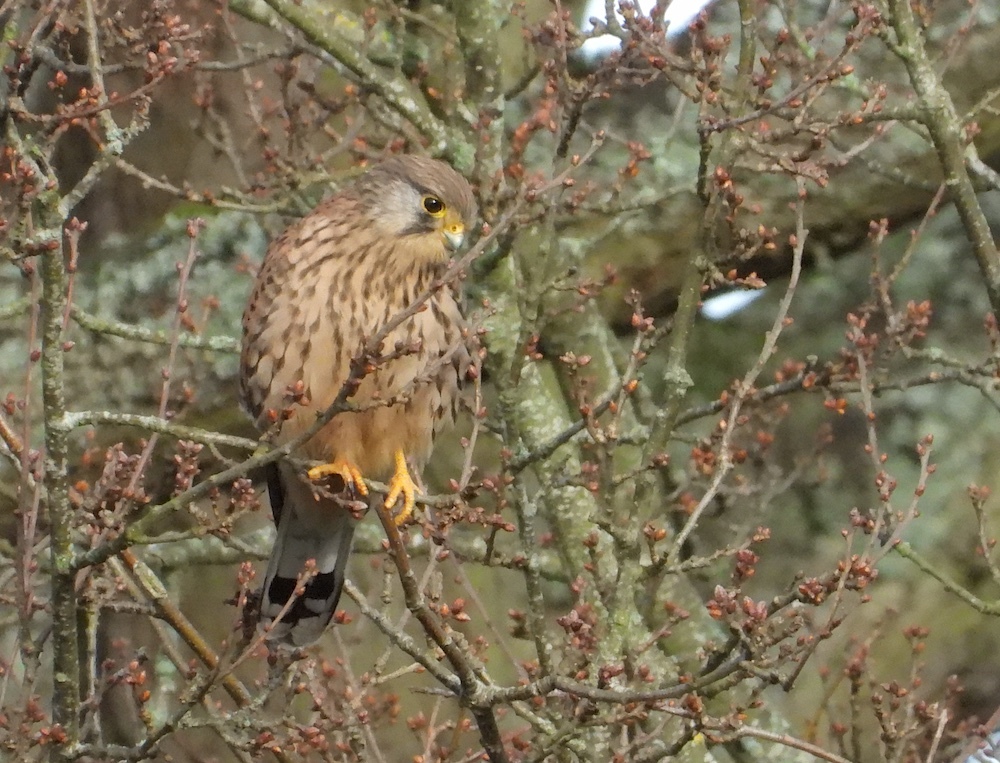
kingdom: Animalia
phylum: Chordata
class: Aves
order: Falconiformes
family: Falconidae
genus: Falco
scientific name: Falco tinnunculus
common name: Common kestrel
